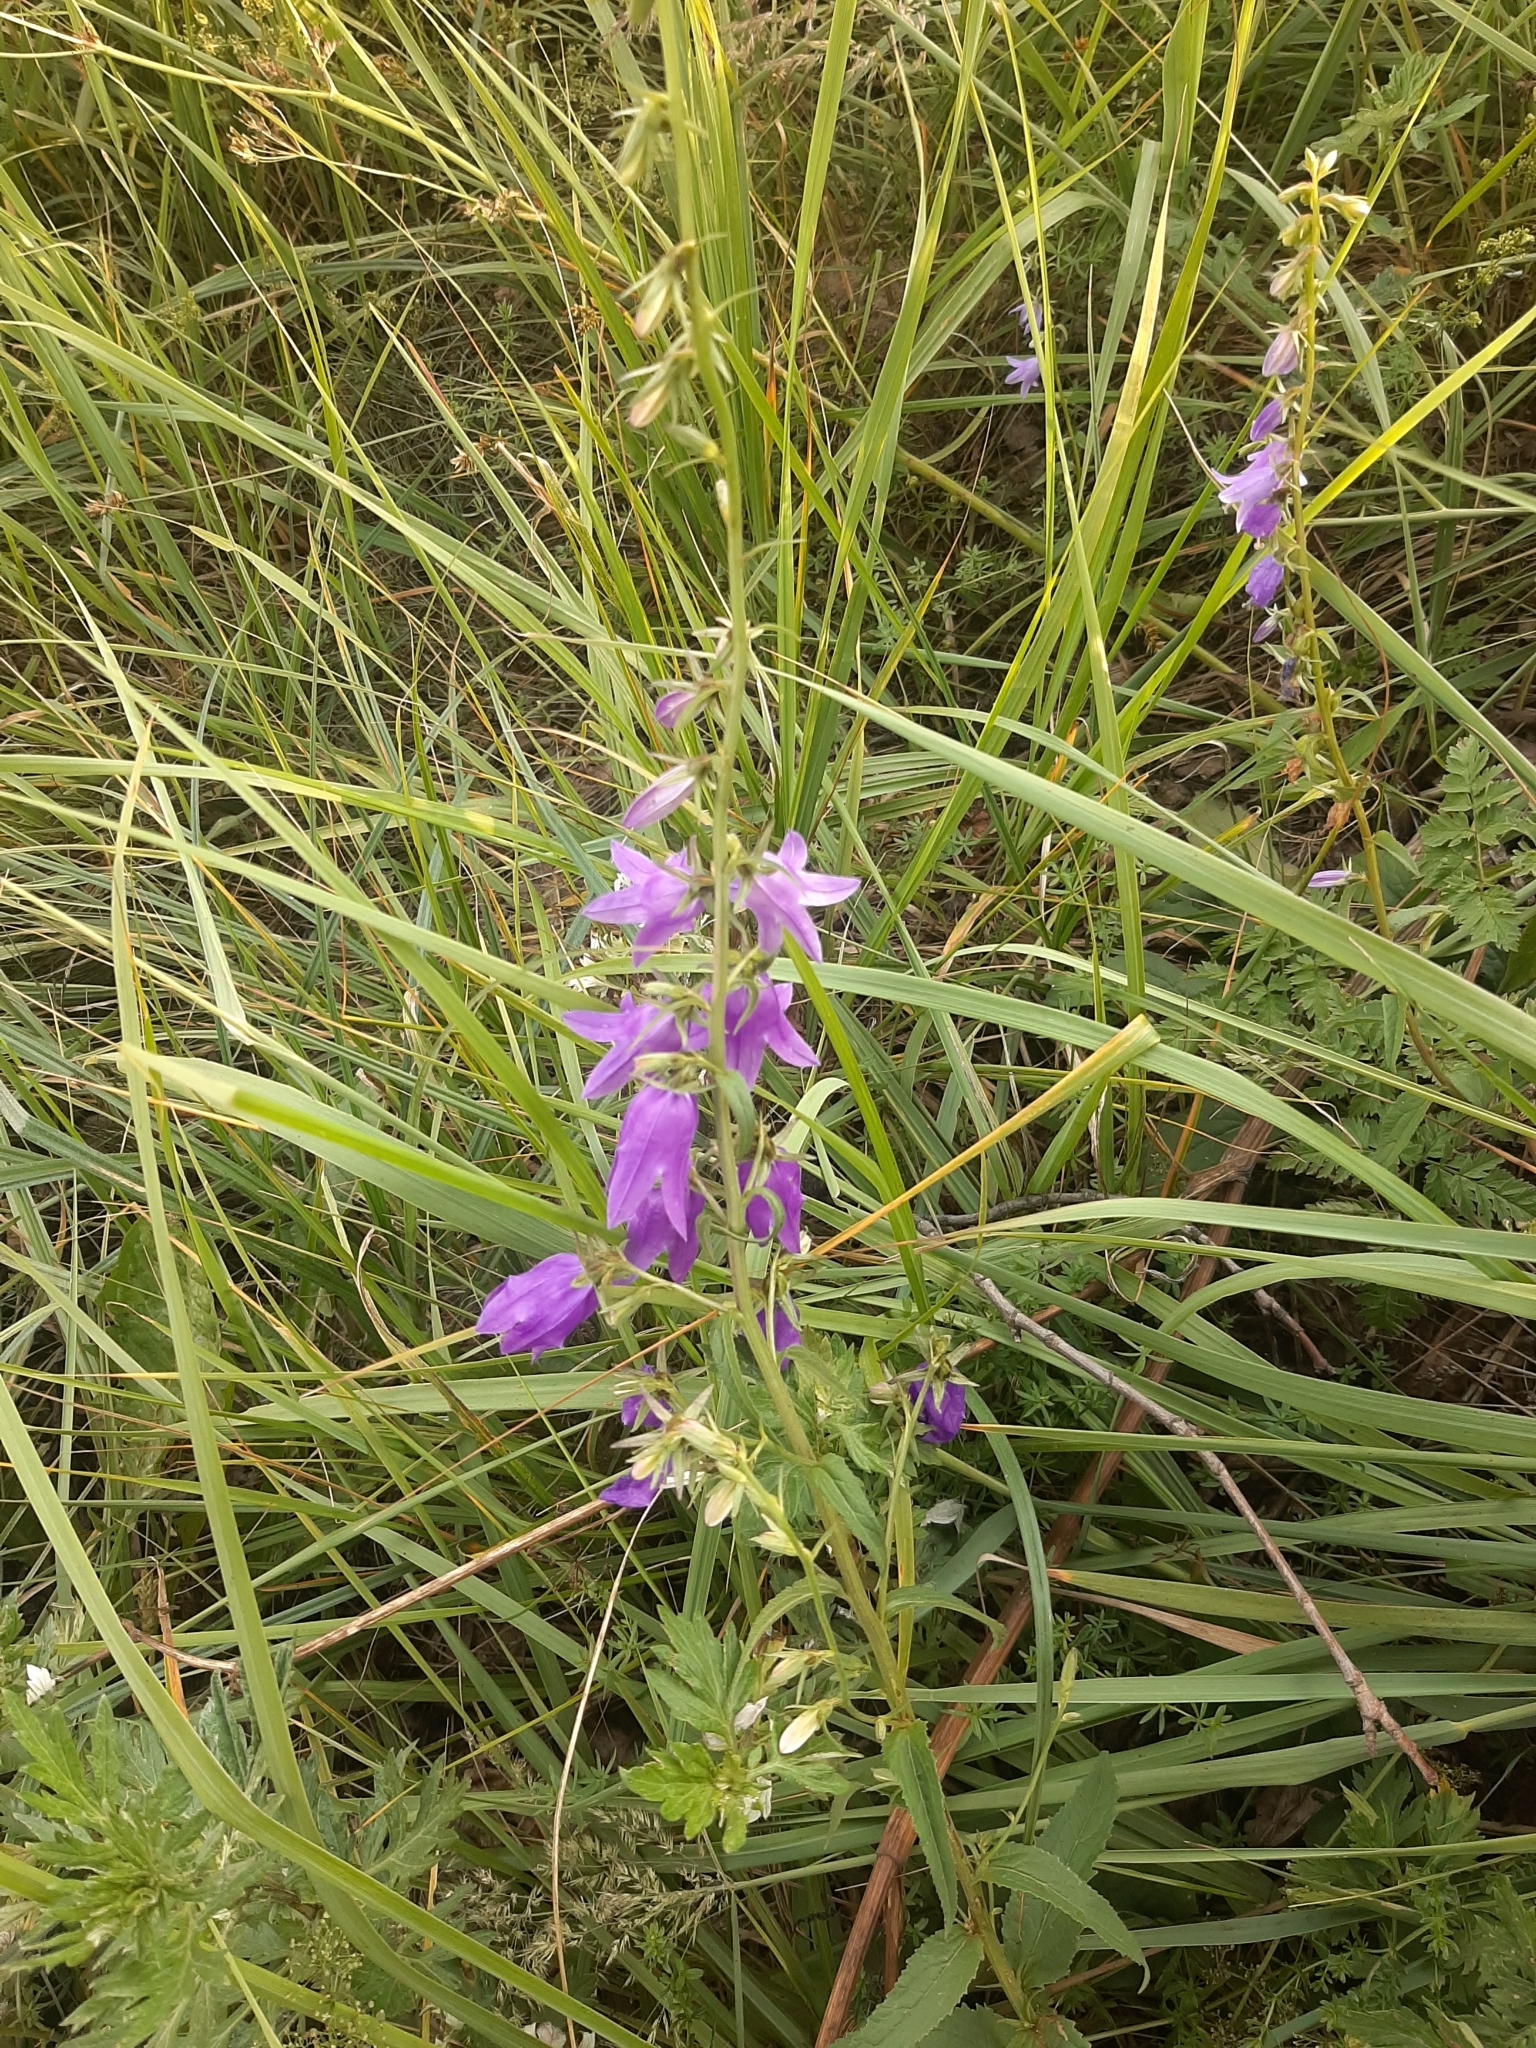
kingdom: Plantae
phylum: Tracheophyta
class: Magnoliopsida
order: Asterales
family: Campanulaceae
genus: Campanula
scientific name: Campanula rapunculoides
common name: Creeping bellflower
